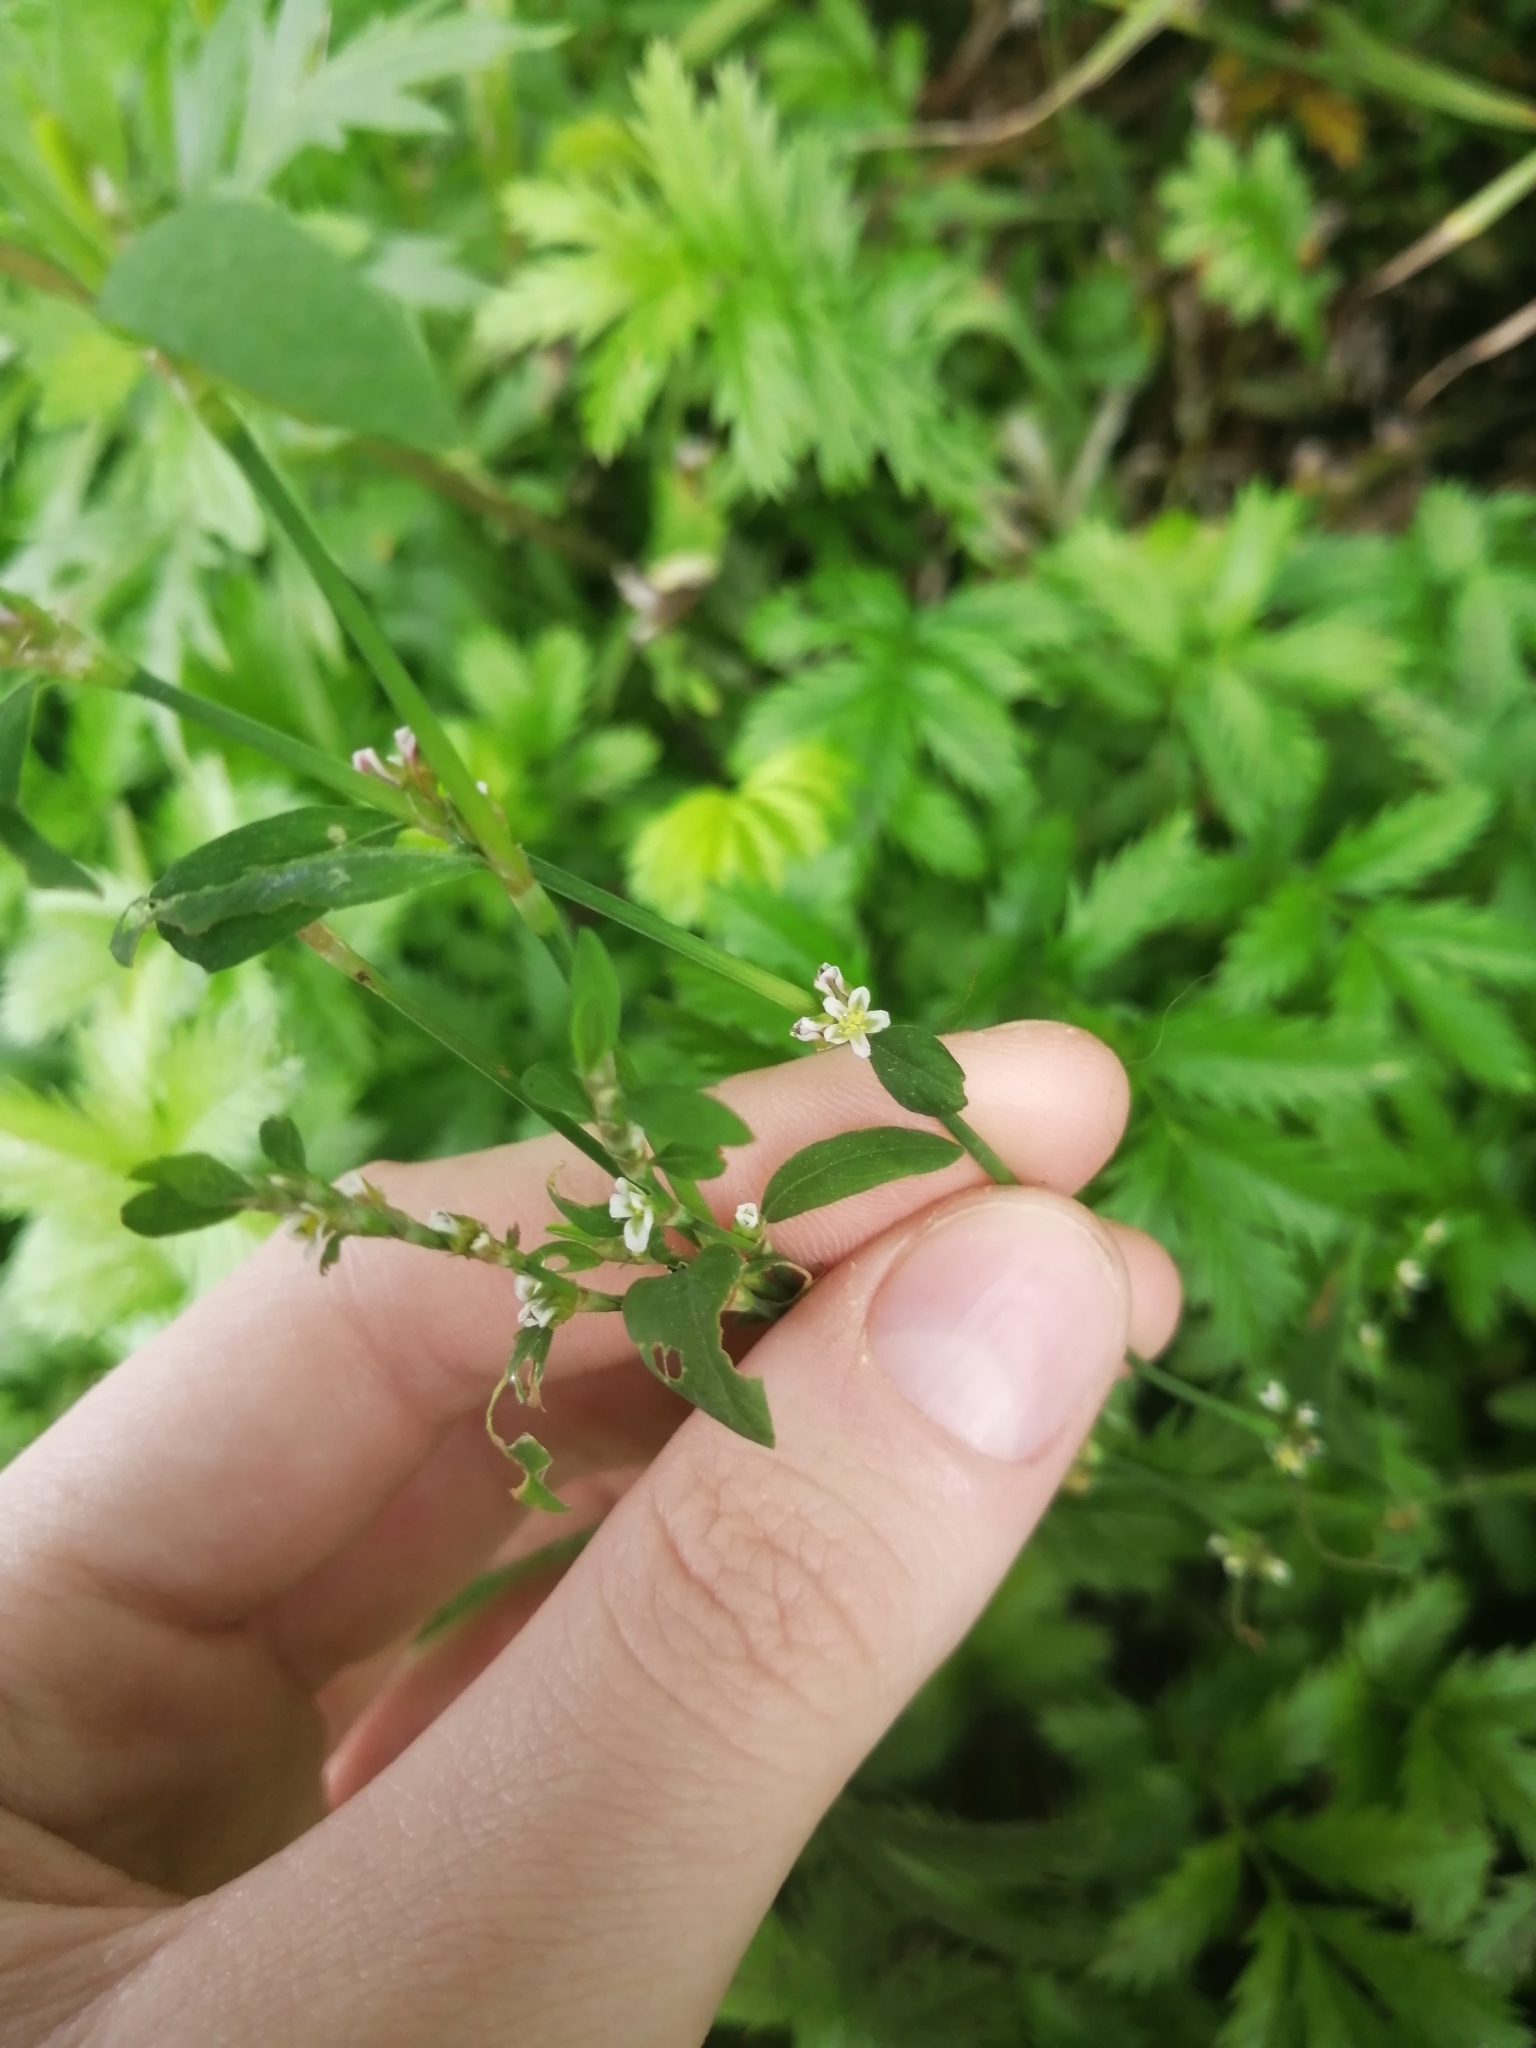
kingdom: Plantae
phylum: Tracheophyta
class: Magnoliopsida
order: Caryophyllales
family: Polygonaceae
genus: Polygonum
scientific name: Polygonum
